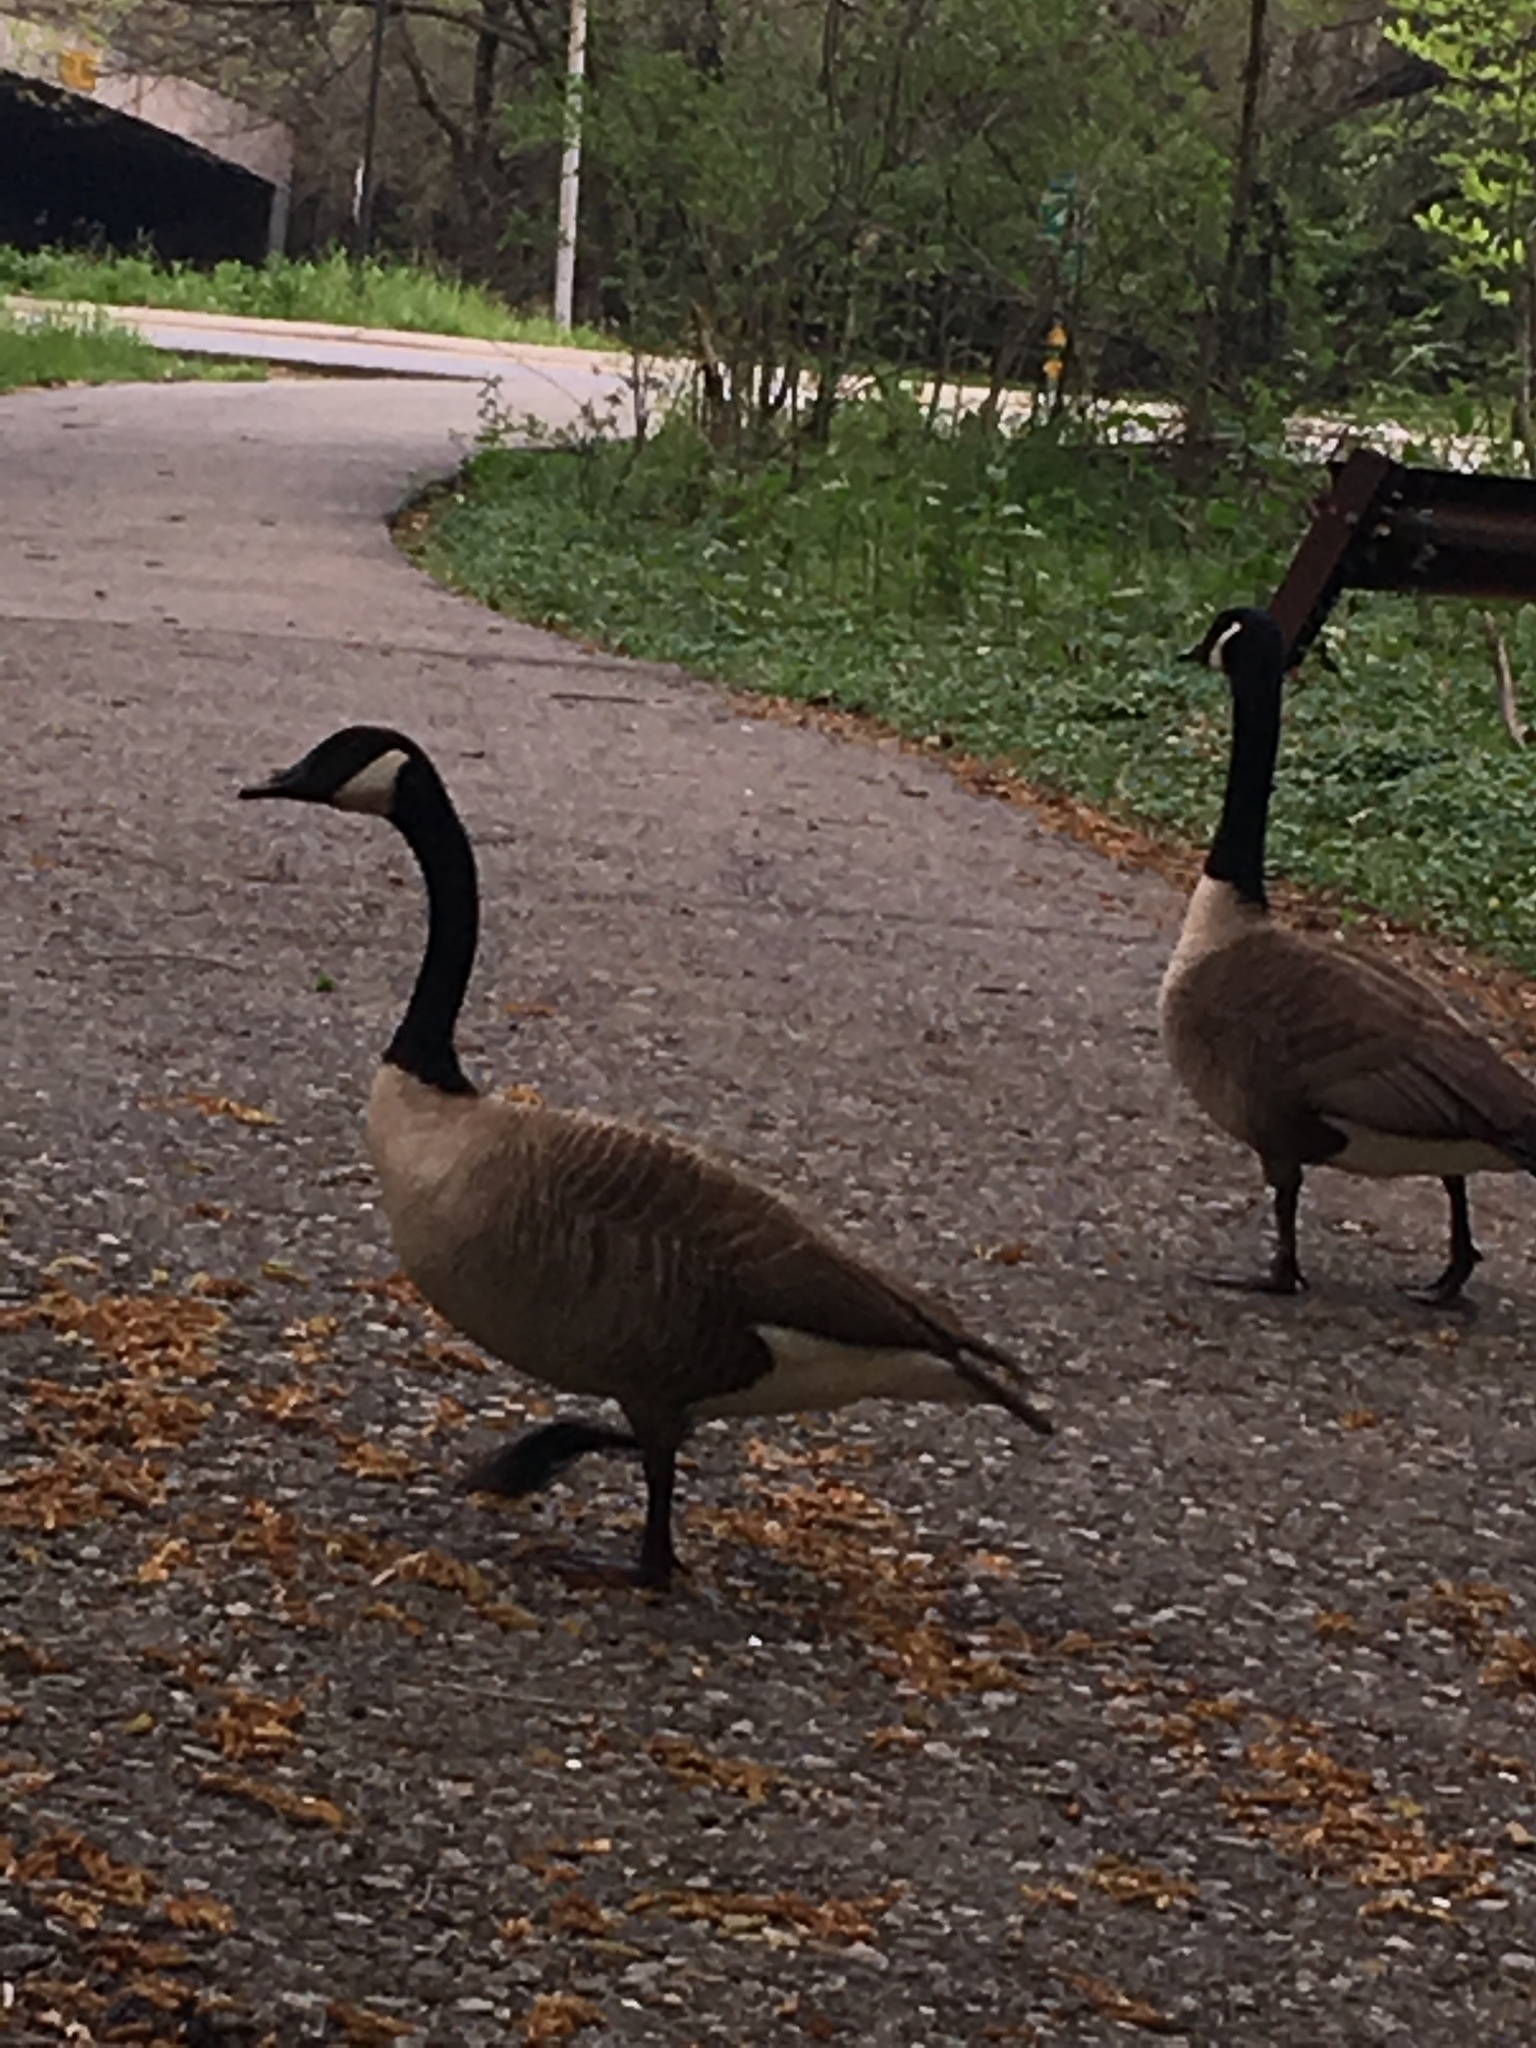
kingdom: Animalia
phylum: Chordata
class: Aves
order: Anseriformes
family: Anatidae
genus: Branta
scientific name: Branta canadensis
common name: Canada goose
